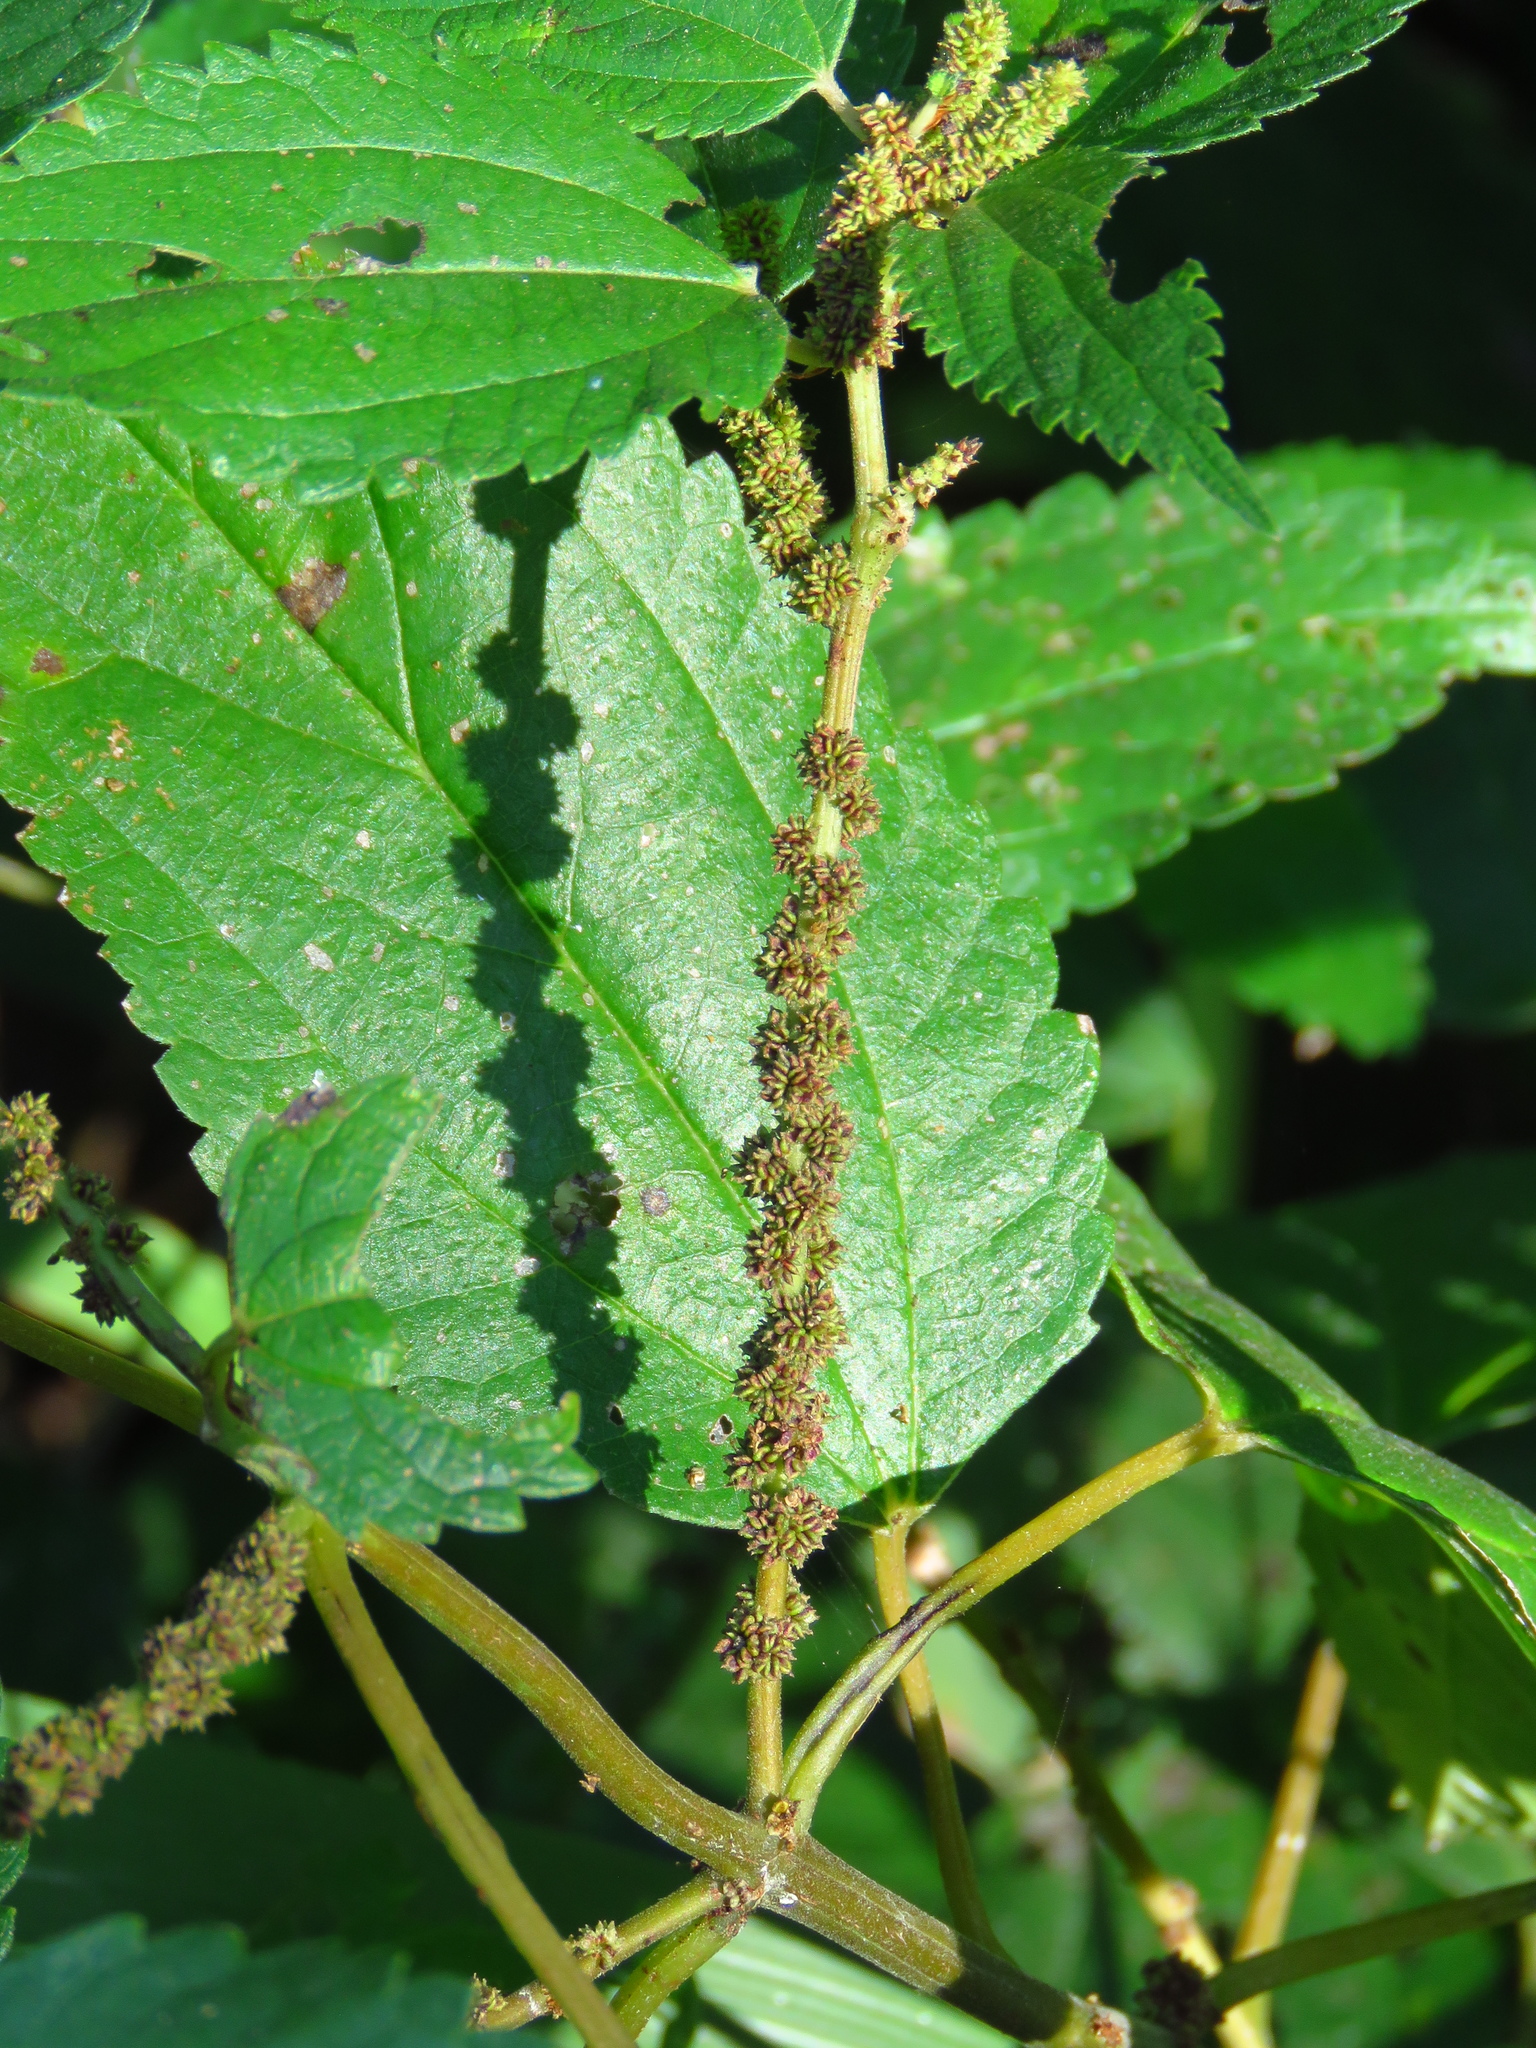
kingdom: Plantae
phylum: Tracheophyta
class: Magnoliopsida
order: Rosales
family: Urticaceae
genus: Boehmeria
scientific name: Boehmeria cylindrica
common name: Bog-hemp
